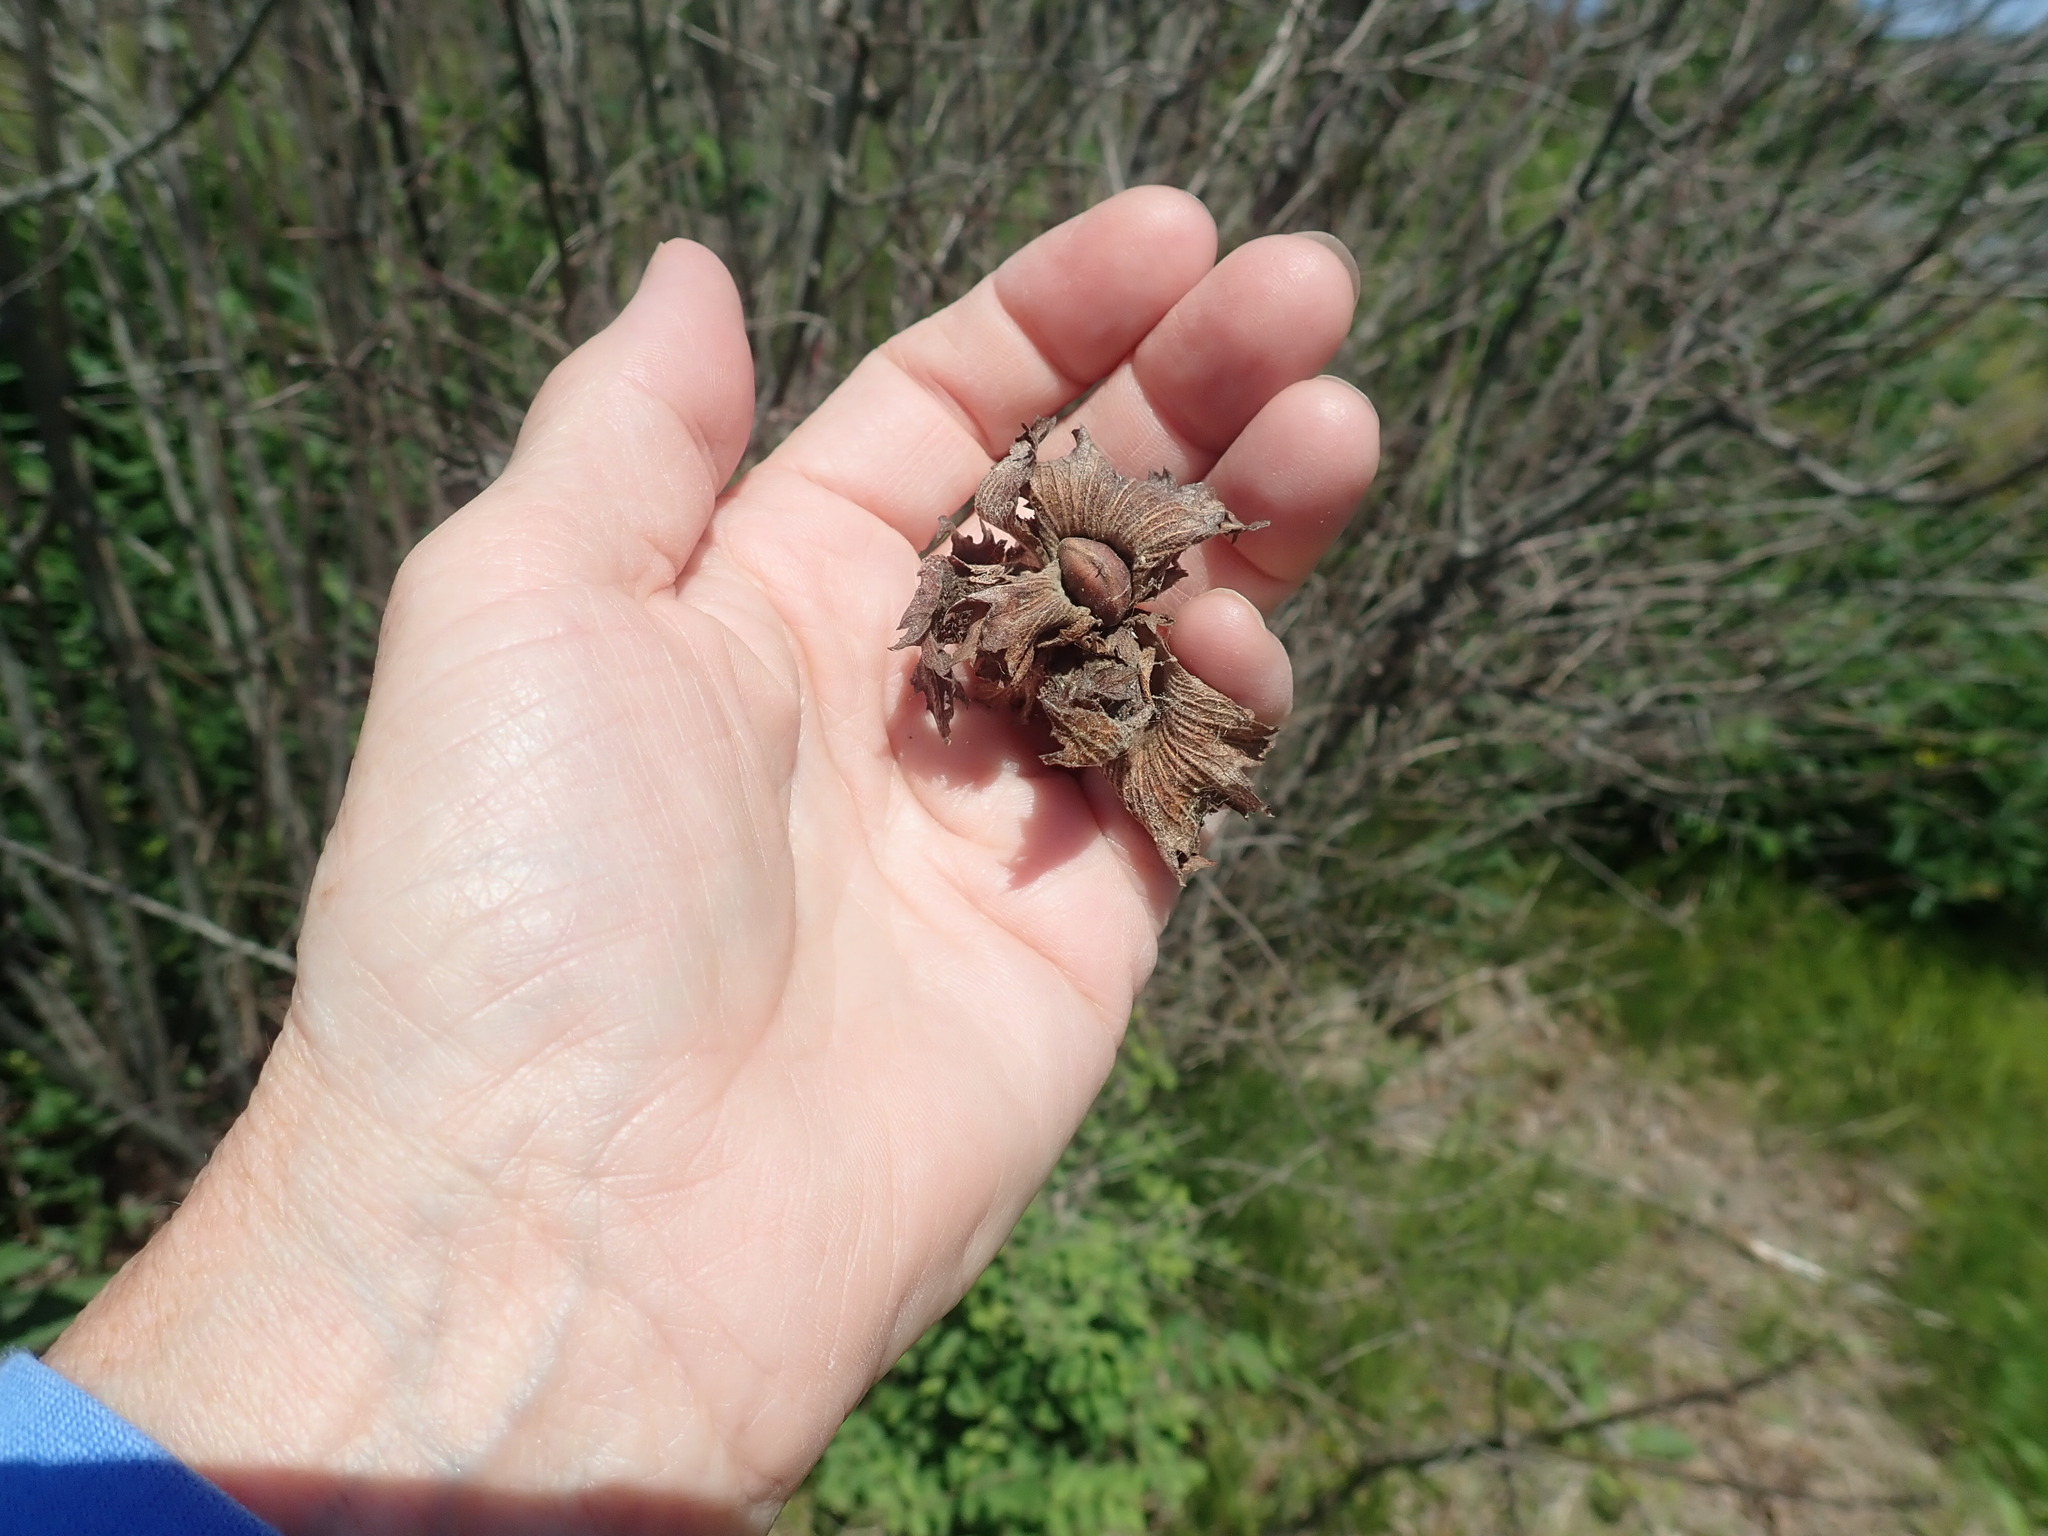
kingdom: Plantae
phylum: Tracheophyta
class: Magnoliopsida
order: Fagales
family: Betulaceae
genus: Corylus
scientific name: Corylus americana
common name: American hazel
